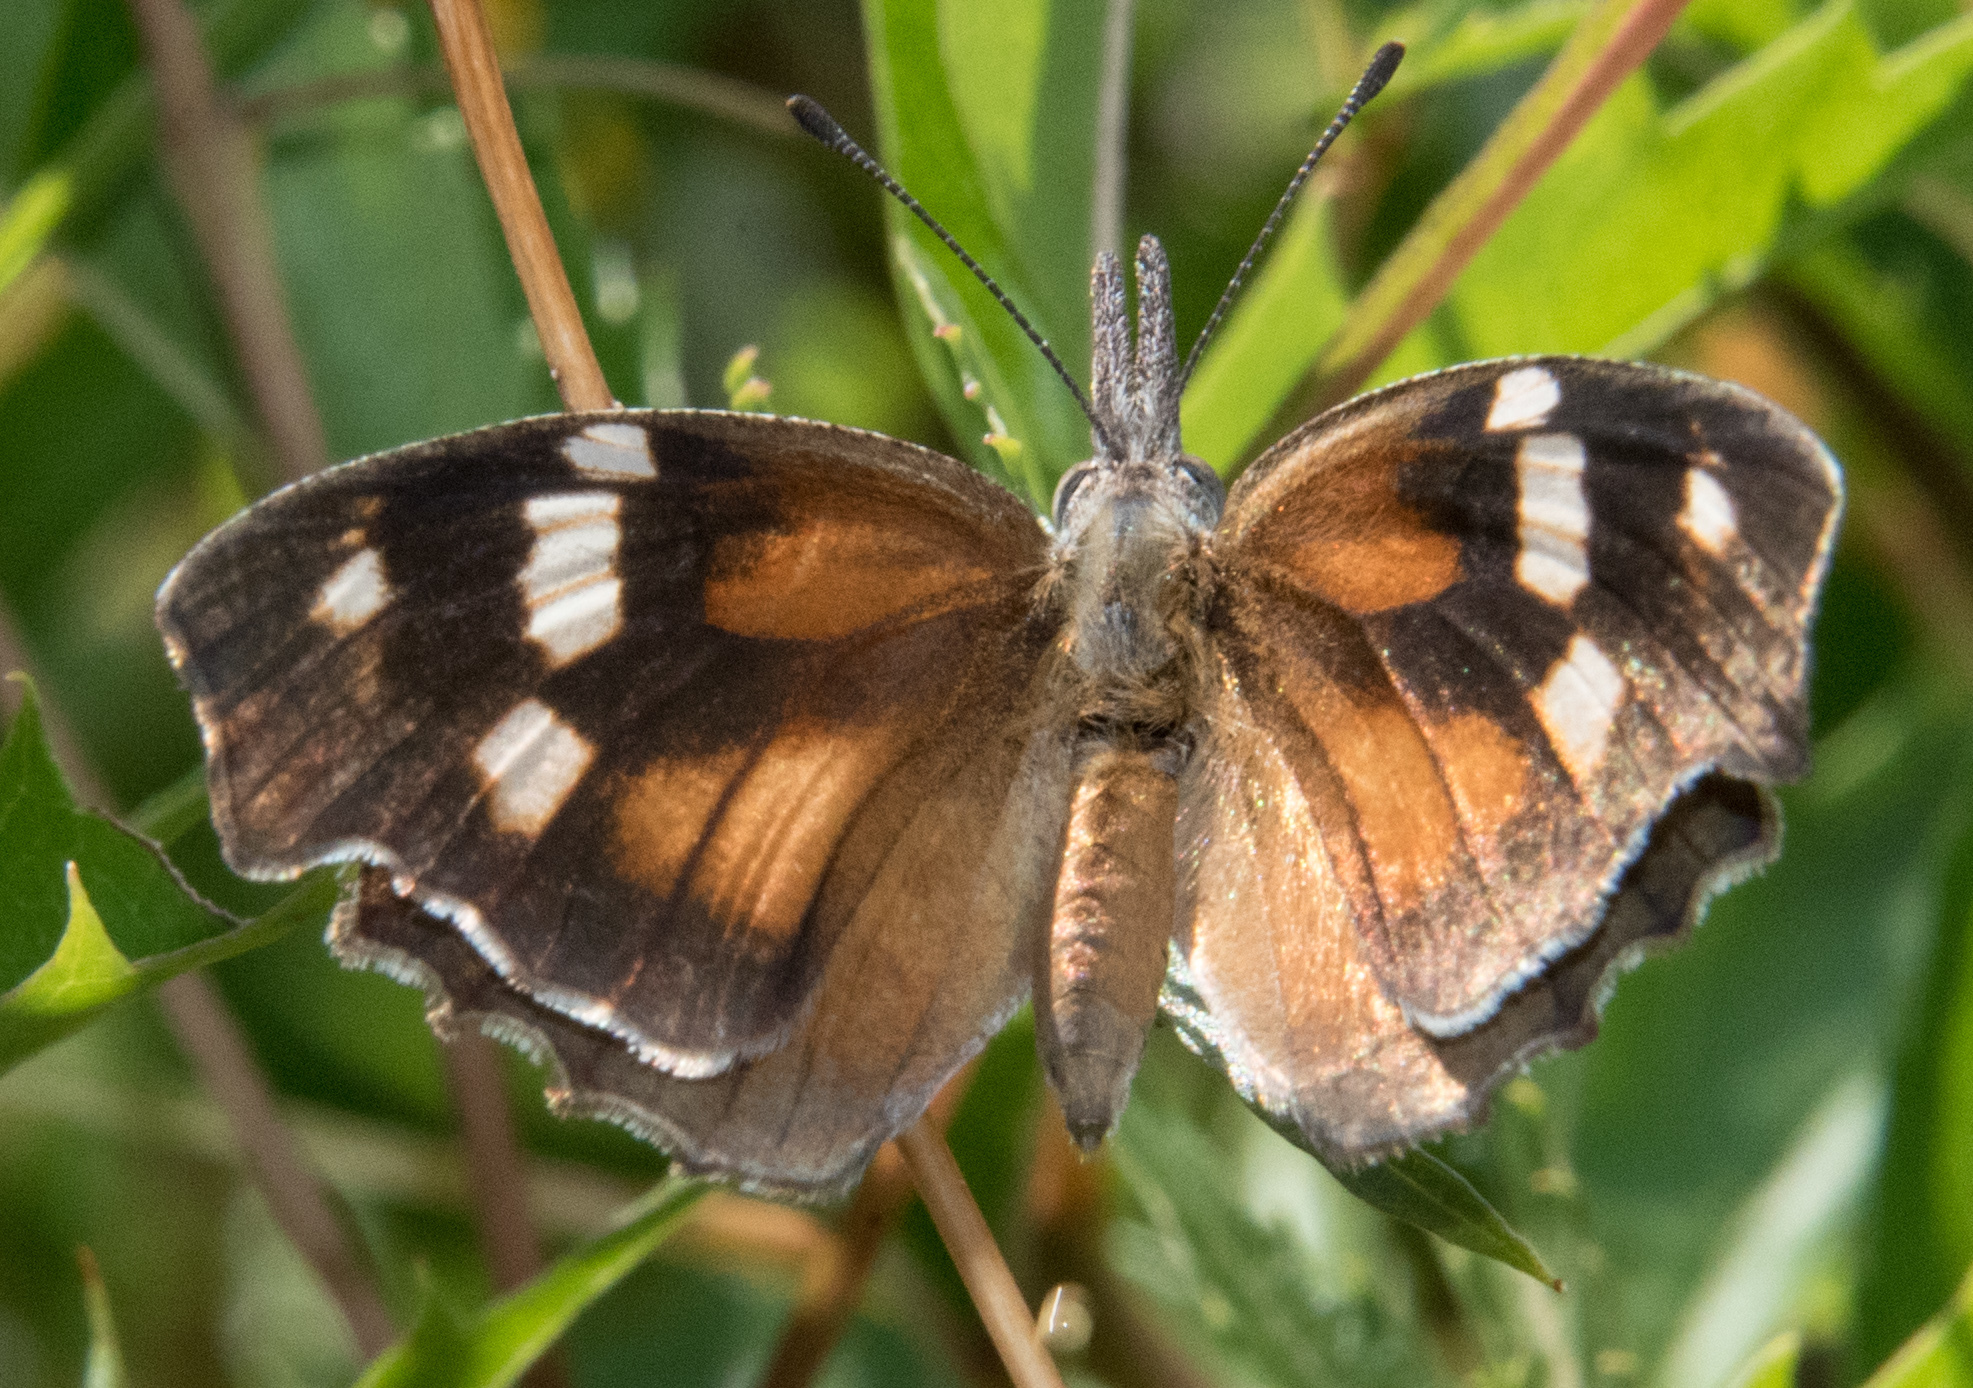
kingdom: Animalia
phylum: Arthropoda
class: Insecta
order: Lepidoptera
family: Nymphalidae
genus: Libytheana
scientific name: Libytheana carinenta
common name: American snout
